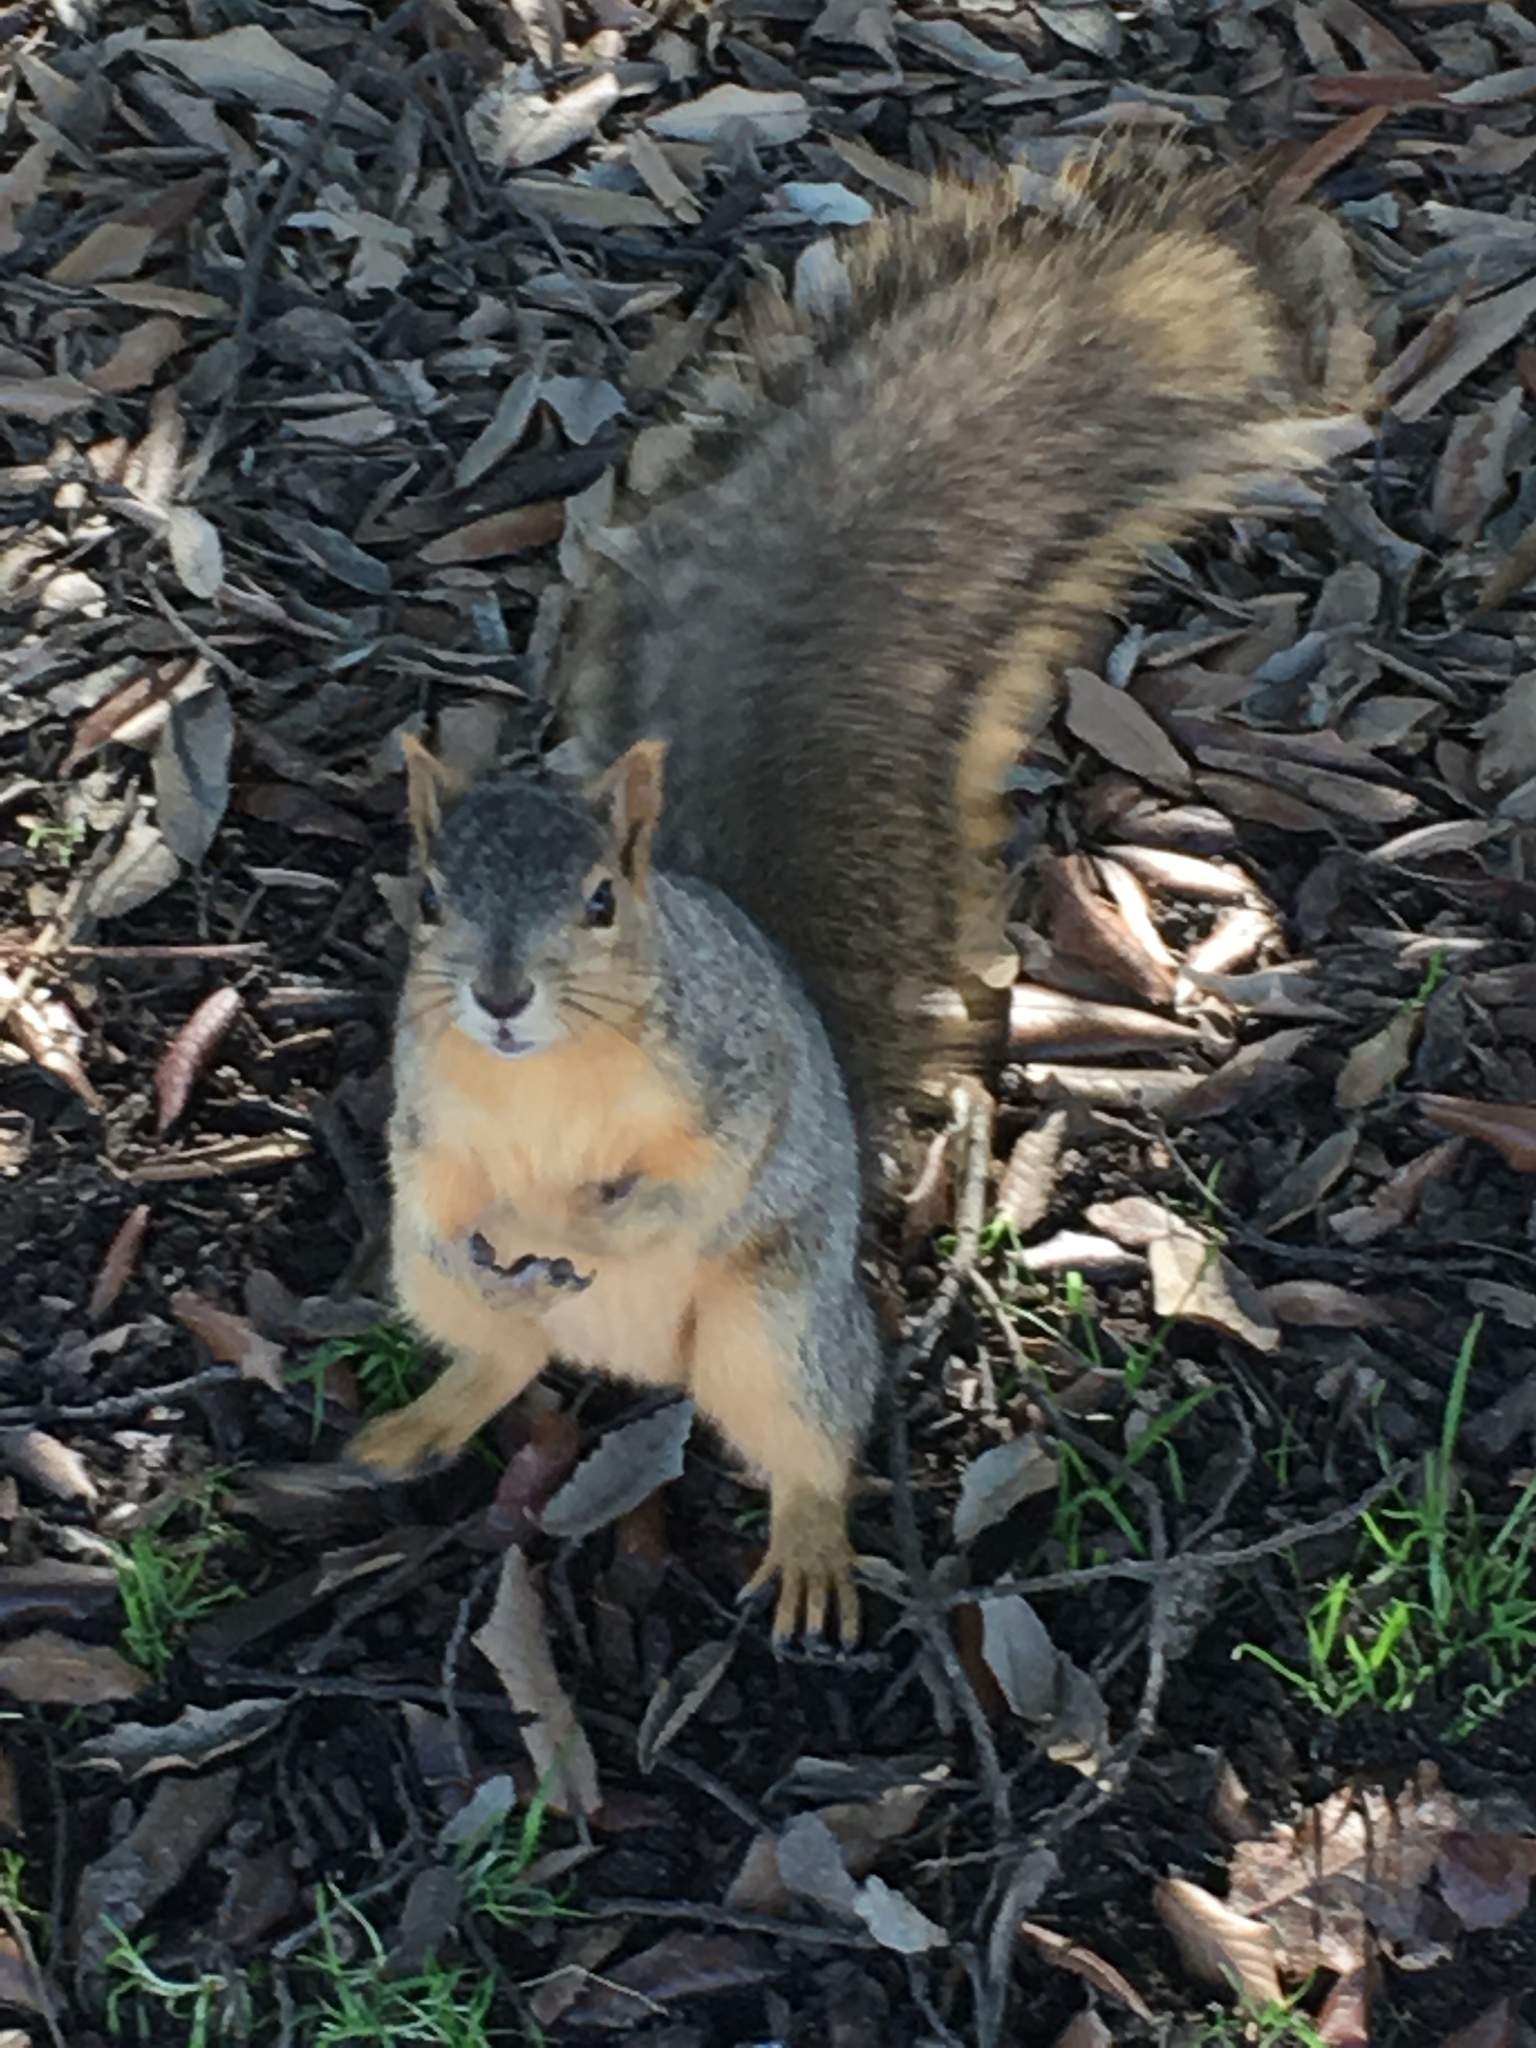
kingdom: Animalia
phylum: Chordata
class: Mammalia
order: Rodentia
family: Sciuridae
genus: Sciurus
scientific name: Sciurus niger
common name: Fox squirrel
